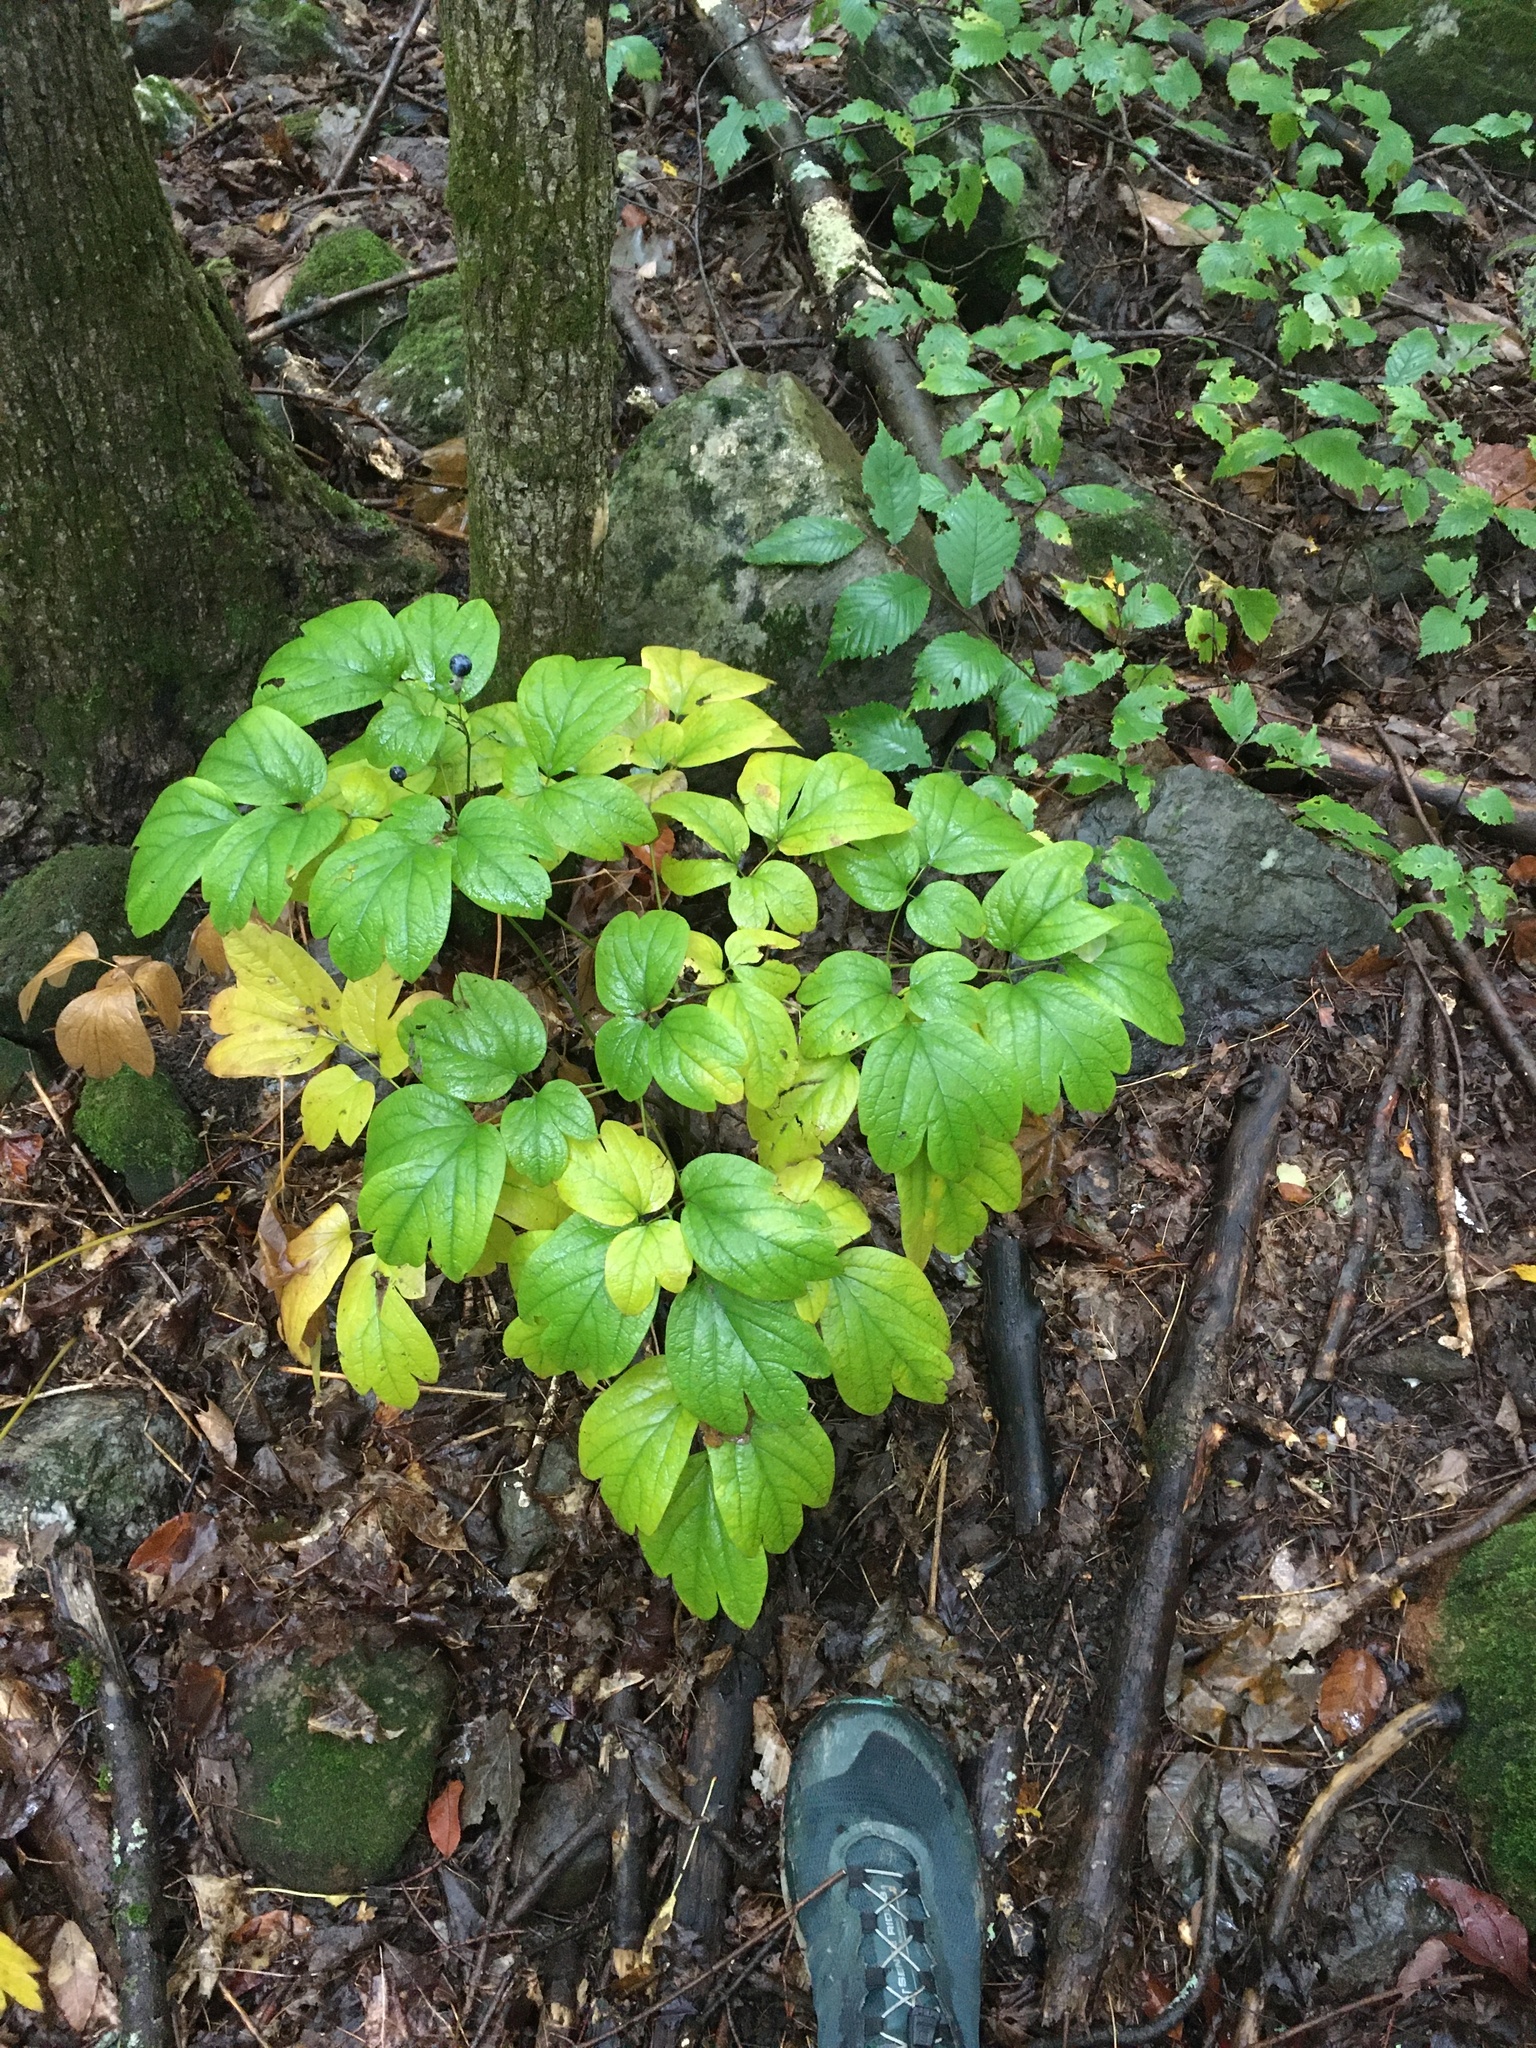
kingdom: Plantae
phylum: Tracheophyta
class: Magnoliopsida
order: Ranunculales
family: Berberidaceae
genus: Caulophyllum
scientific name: Caulophyllum thalictroides
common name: Blue cohosh
